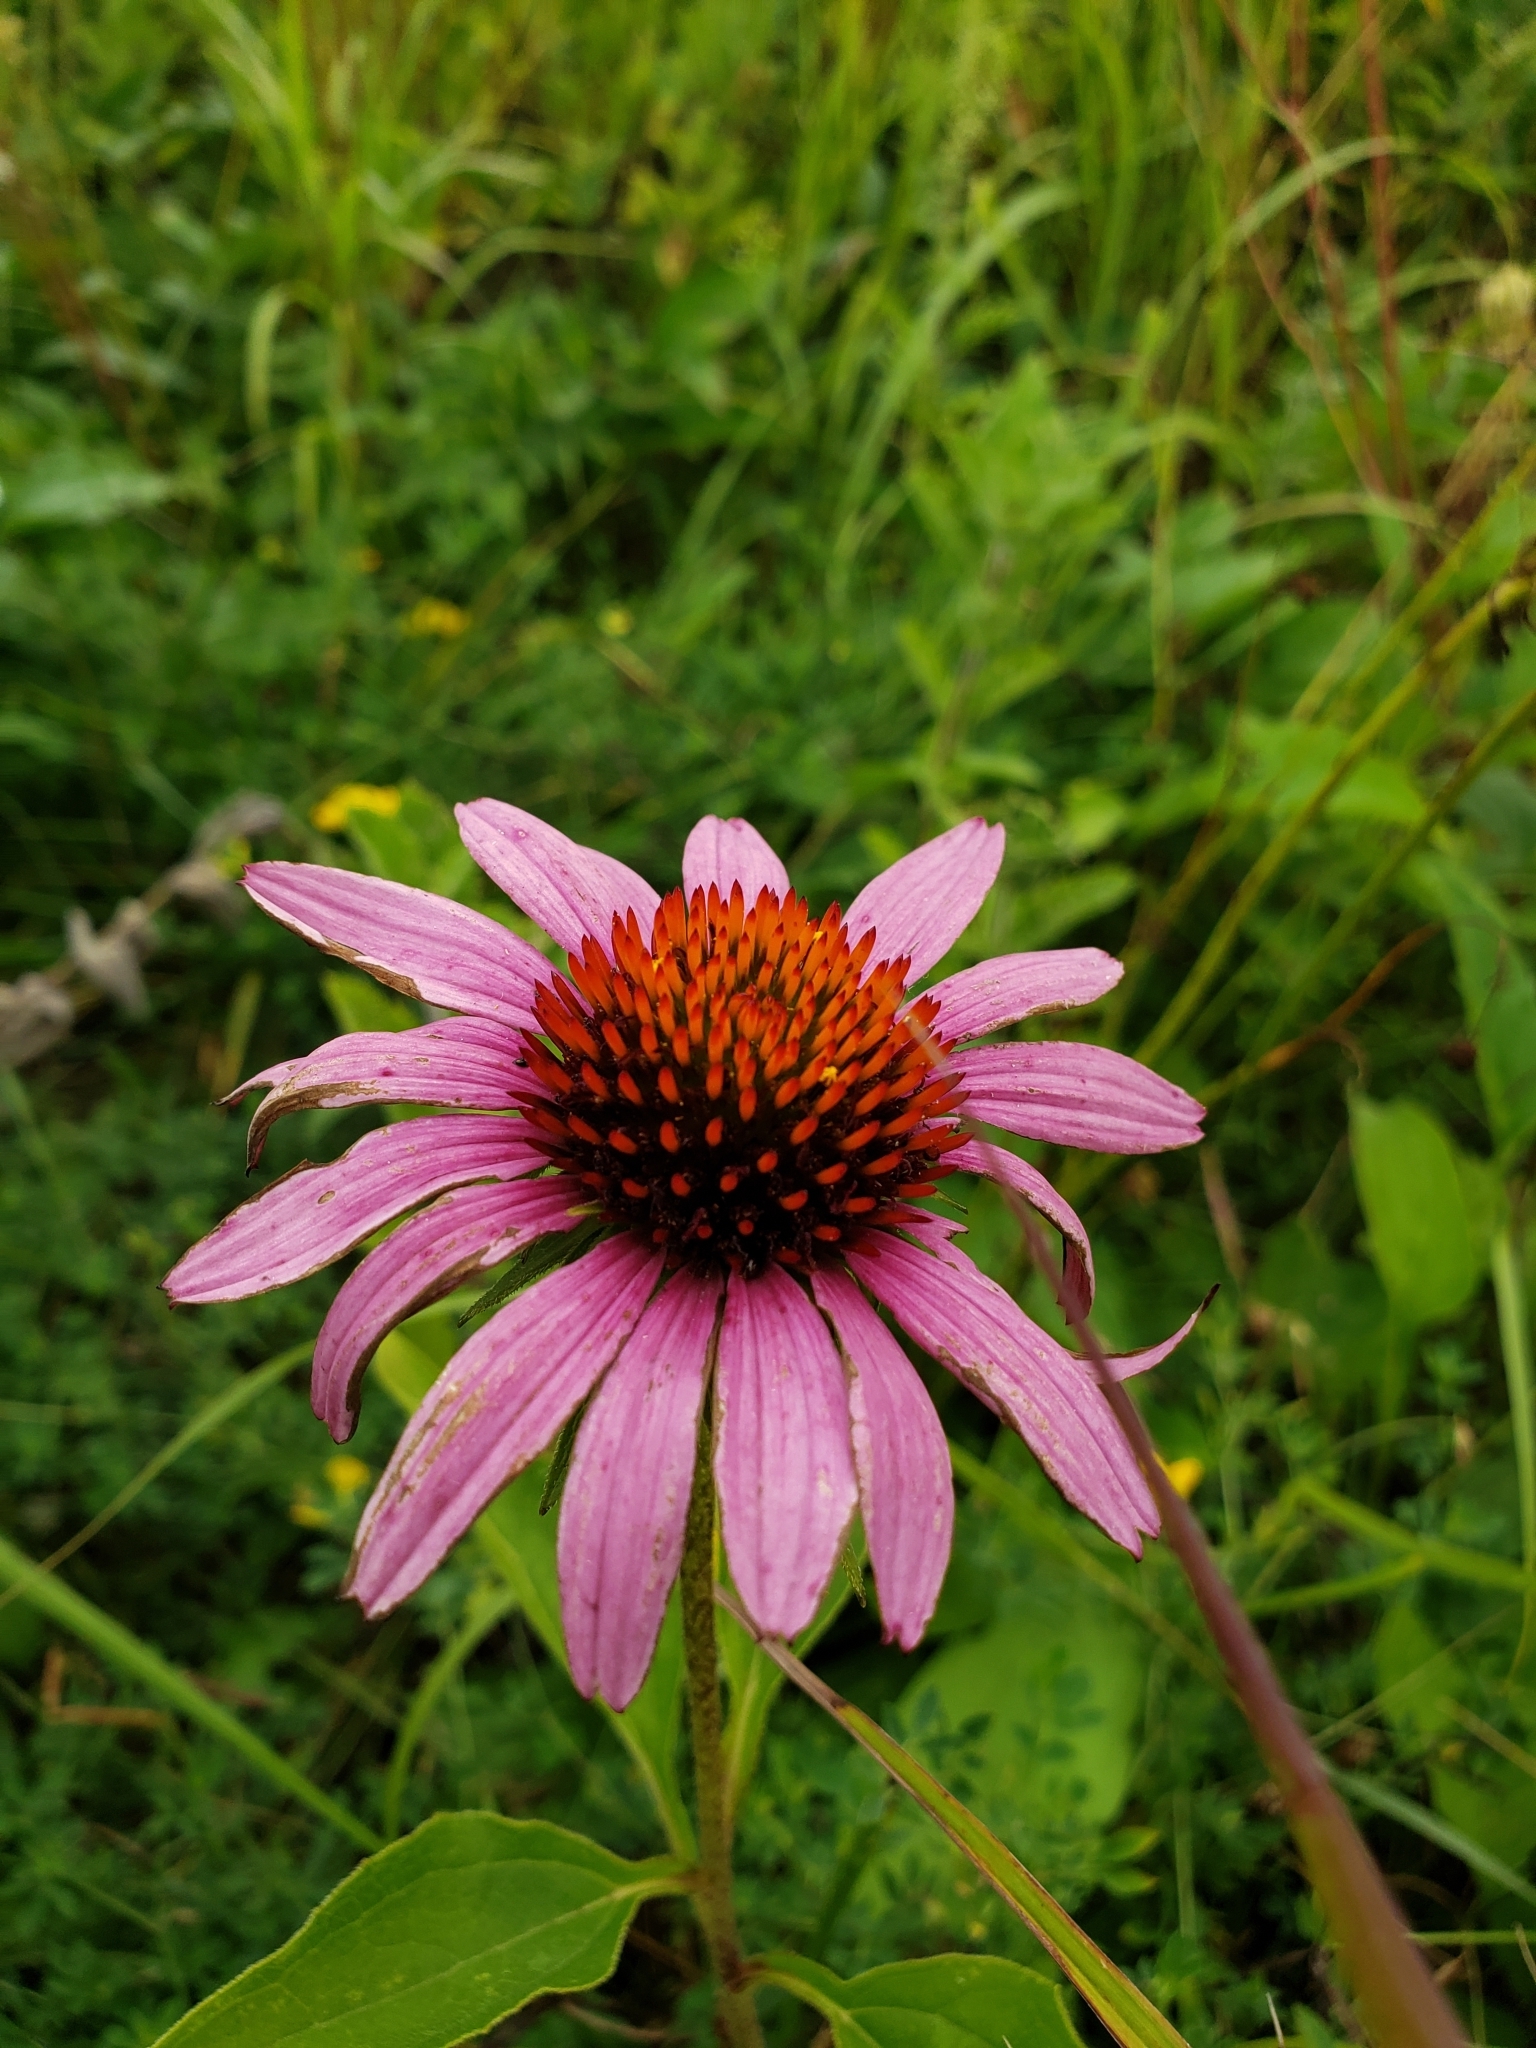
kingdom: Plantae
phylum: Tracheophyta
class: Magnoliopsida
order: Asterales
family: Asteraceae
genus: Echinacea
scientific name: Echinacea purpurea
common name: Broad-leaved purple coneflower
